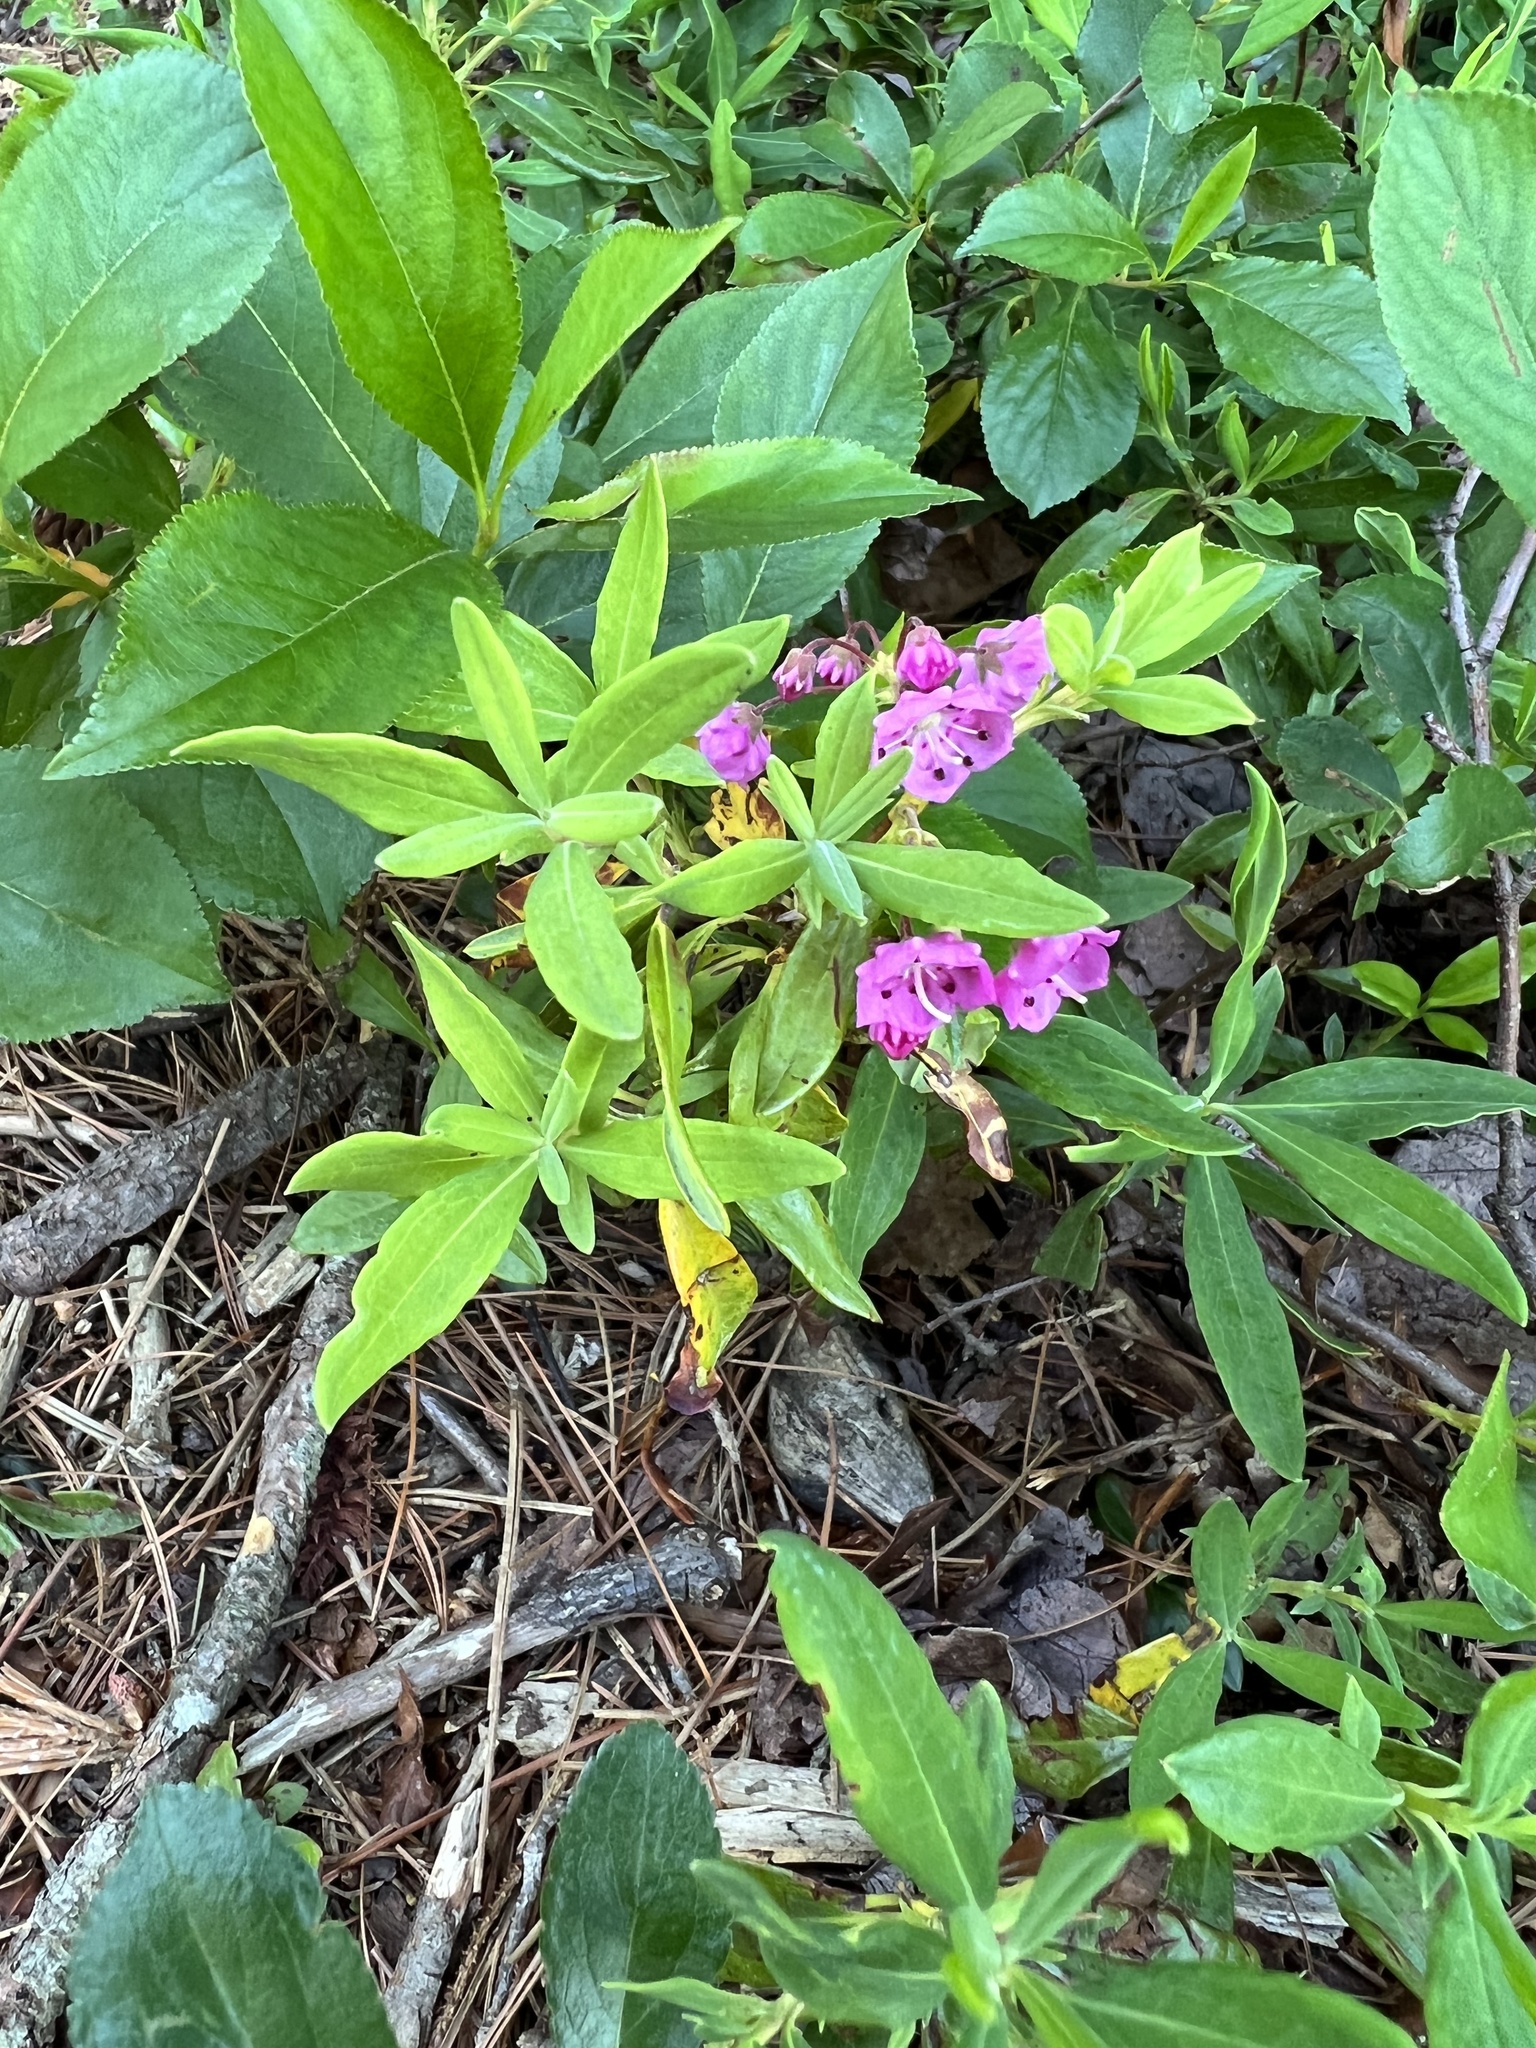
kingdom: Plantae
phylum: Tracheophyta
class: Magnoliopsida
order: Ericales
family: Ericaceae
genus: Kalmia
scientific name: Kalmia angustifolia
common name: Sheep-laurel
